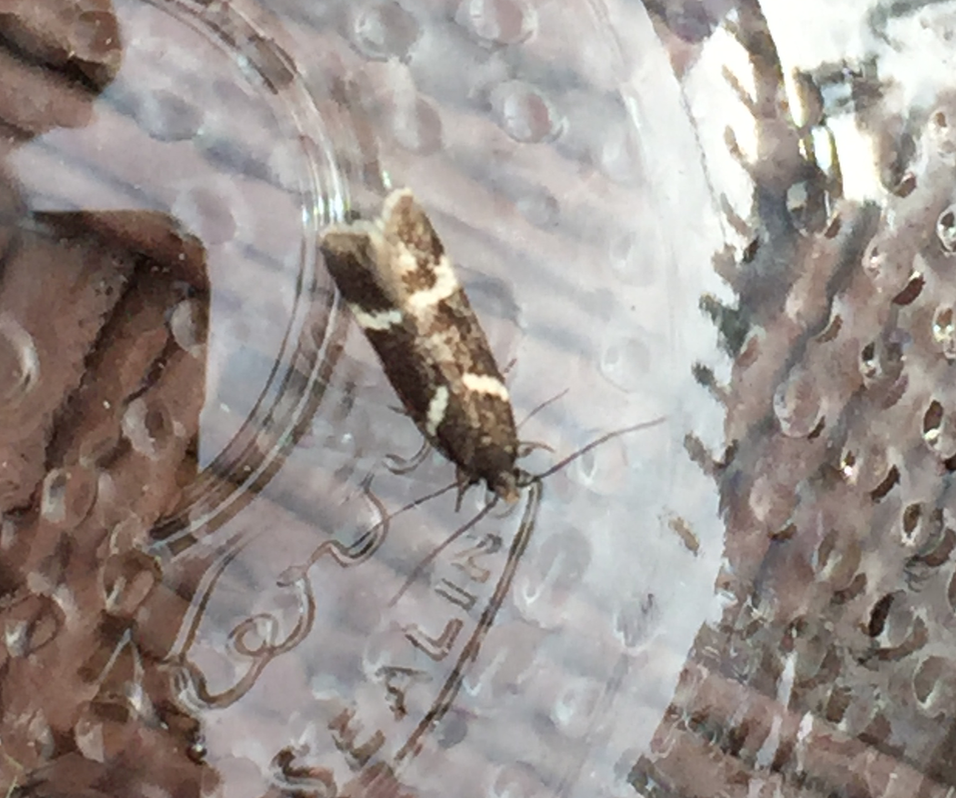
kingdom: Animalia
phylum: Arthropoda
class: Insecta
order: Lepidoptera
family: Gelechiidae
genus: Chionodes
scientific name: Chionodes lugubrella
